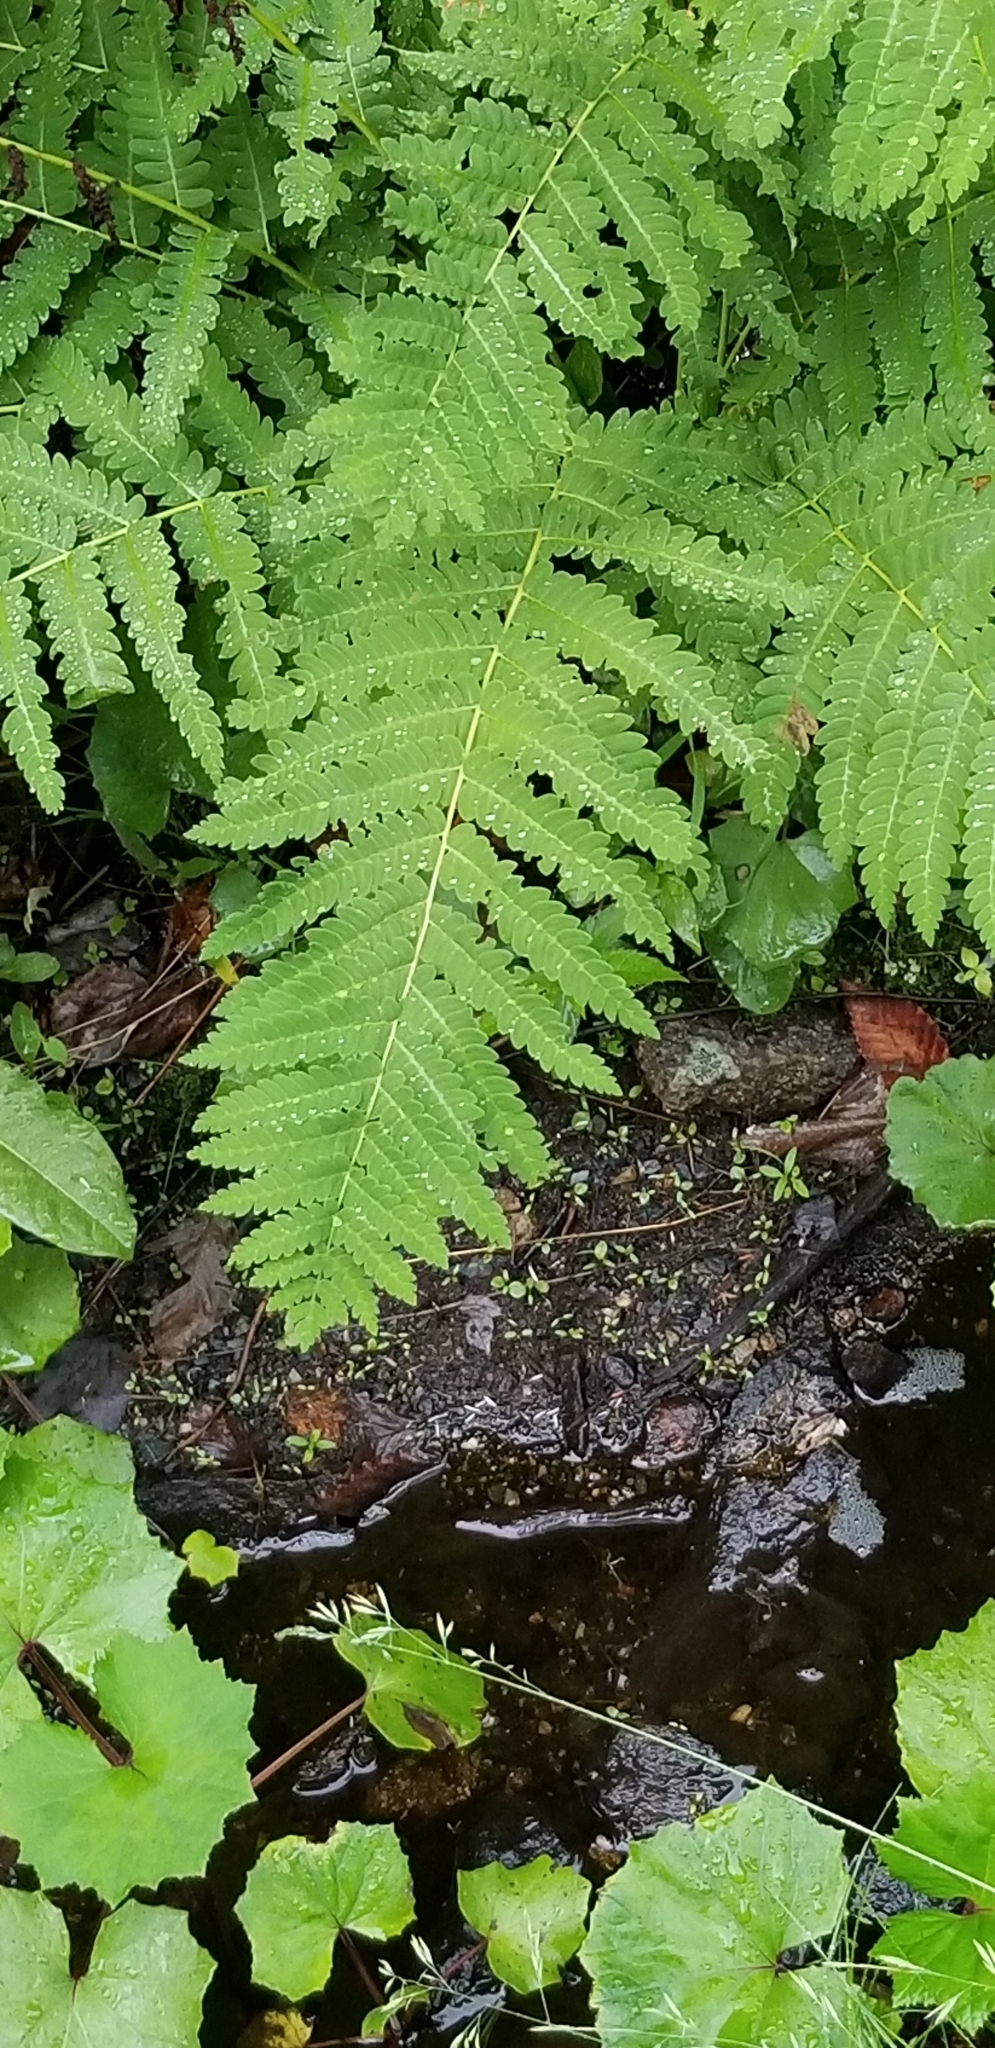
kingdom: Plantae
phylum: Tracheophyta
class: Polypodiopsida
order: Osmundales
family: Osmundaceae
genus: Claytosmunda
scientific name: Claytosmunda claytoniana
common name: Clayton's fern
